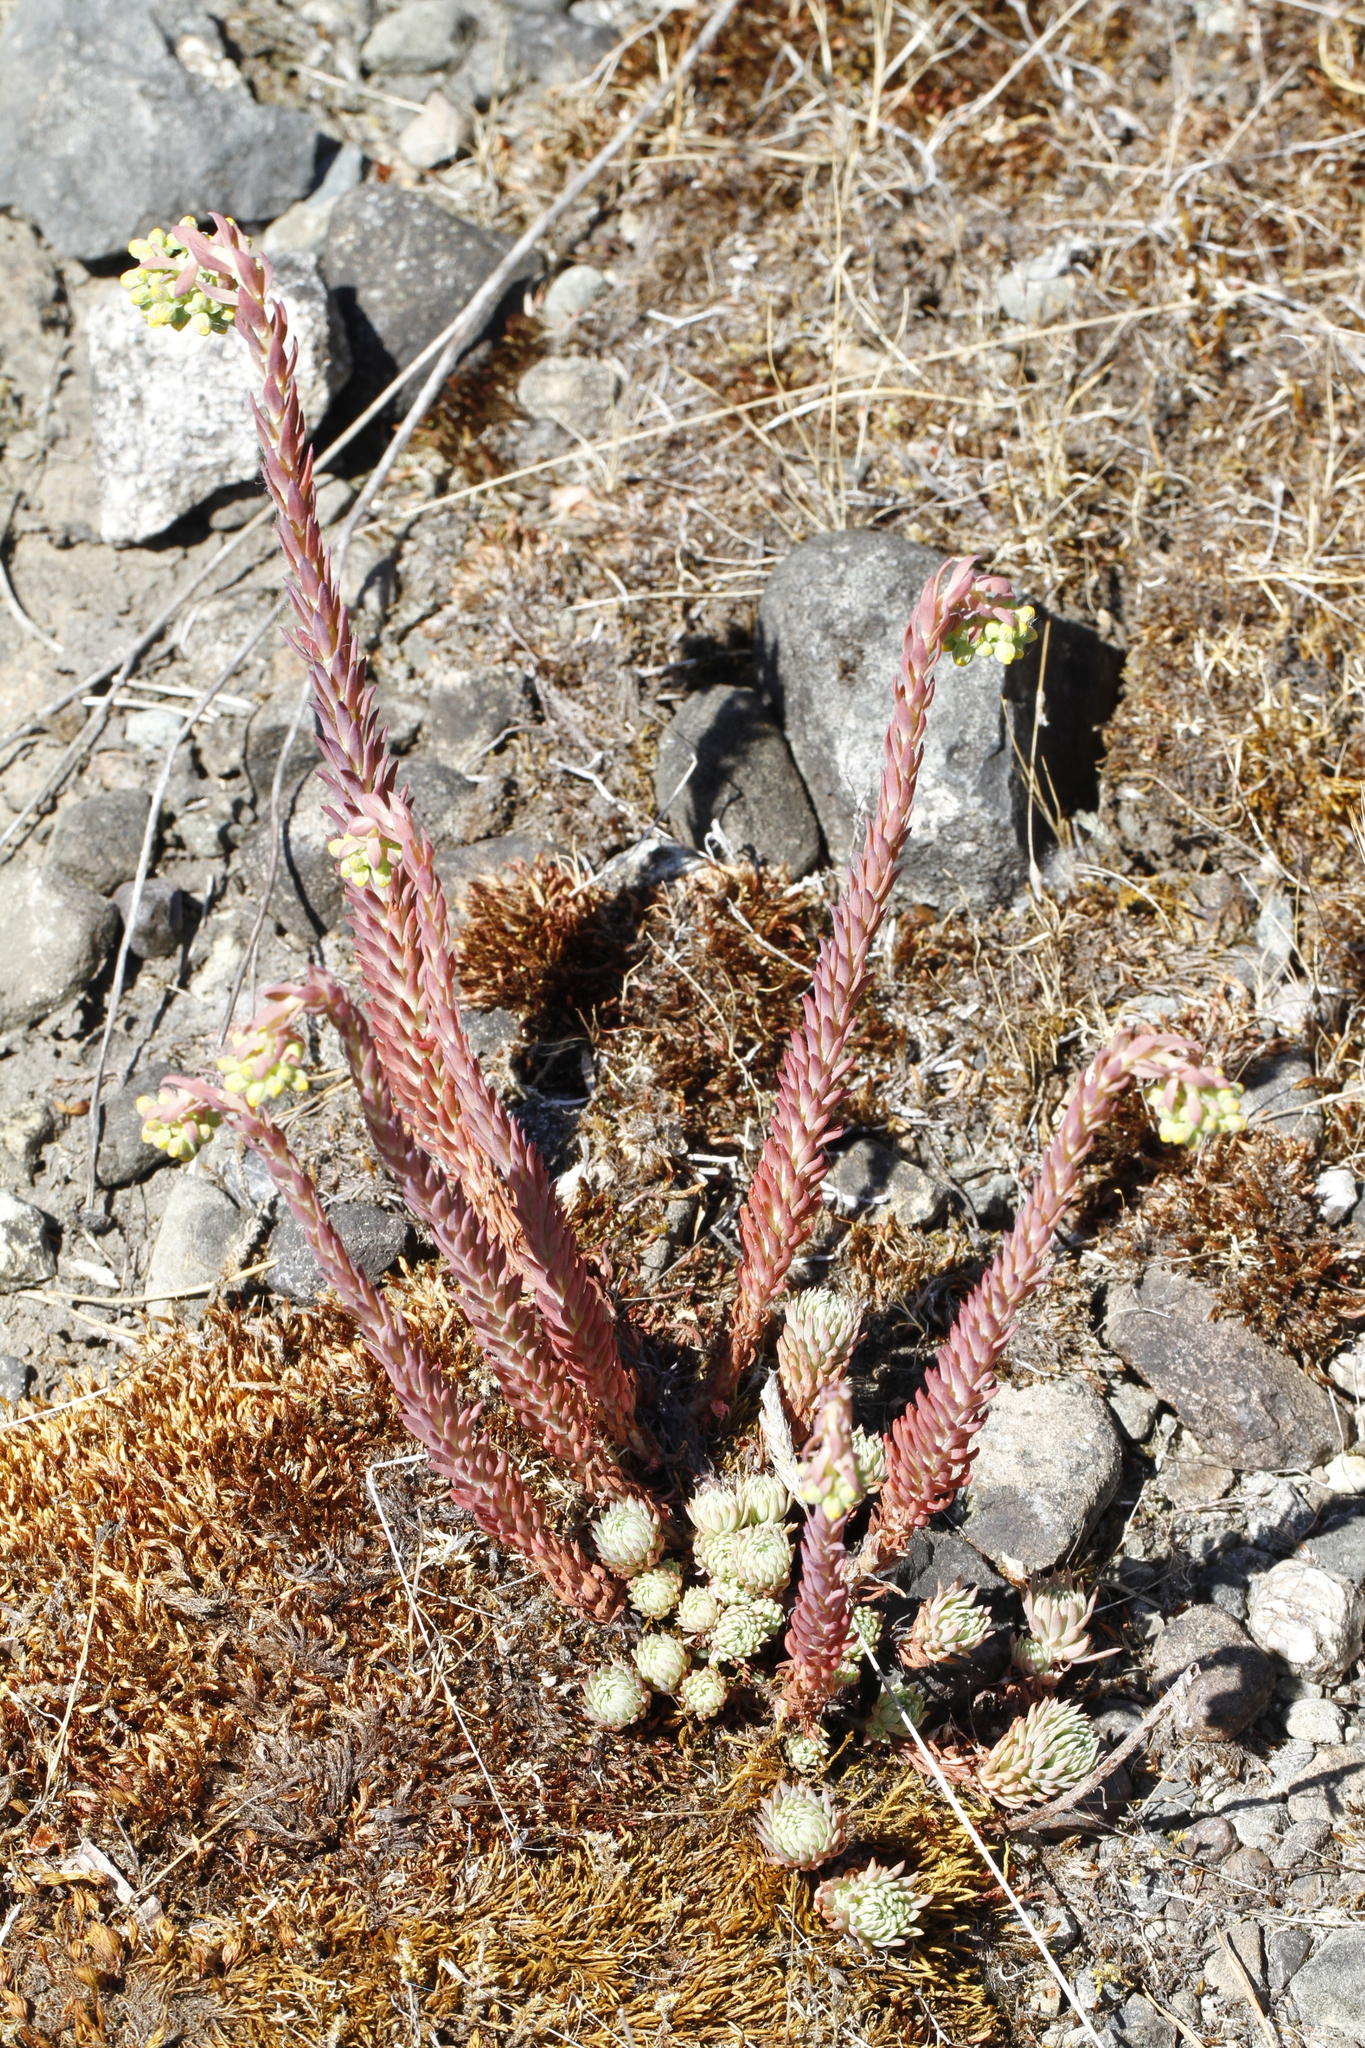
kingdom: Plantae
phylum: Tracheophyta
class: Magnoliopsida
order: Saxifragales
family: Crassulaceae
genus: Petrosedum
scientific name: Petrosedum forsterianum
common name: Forster's stonecrop
